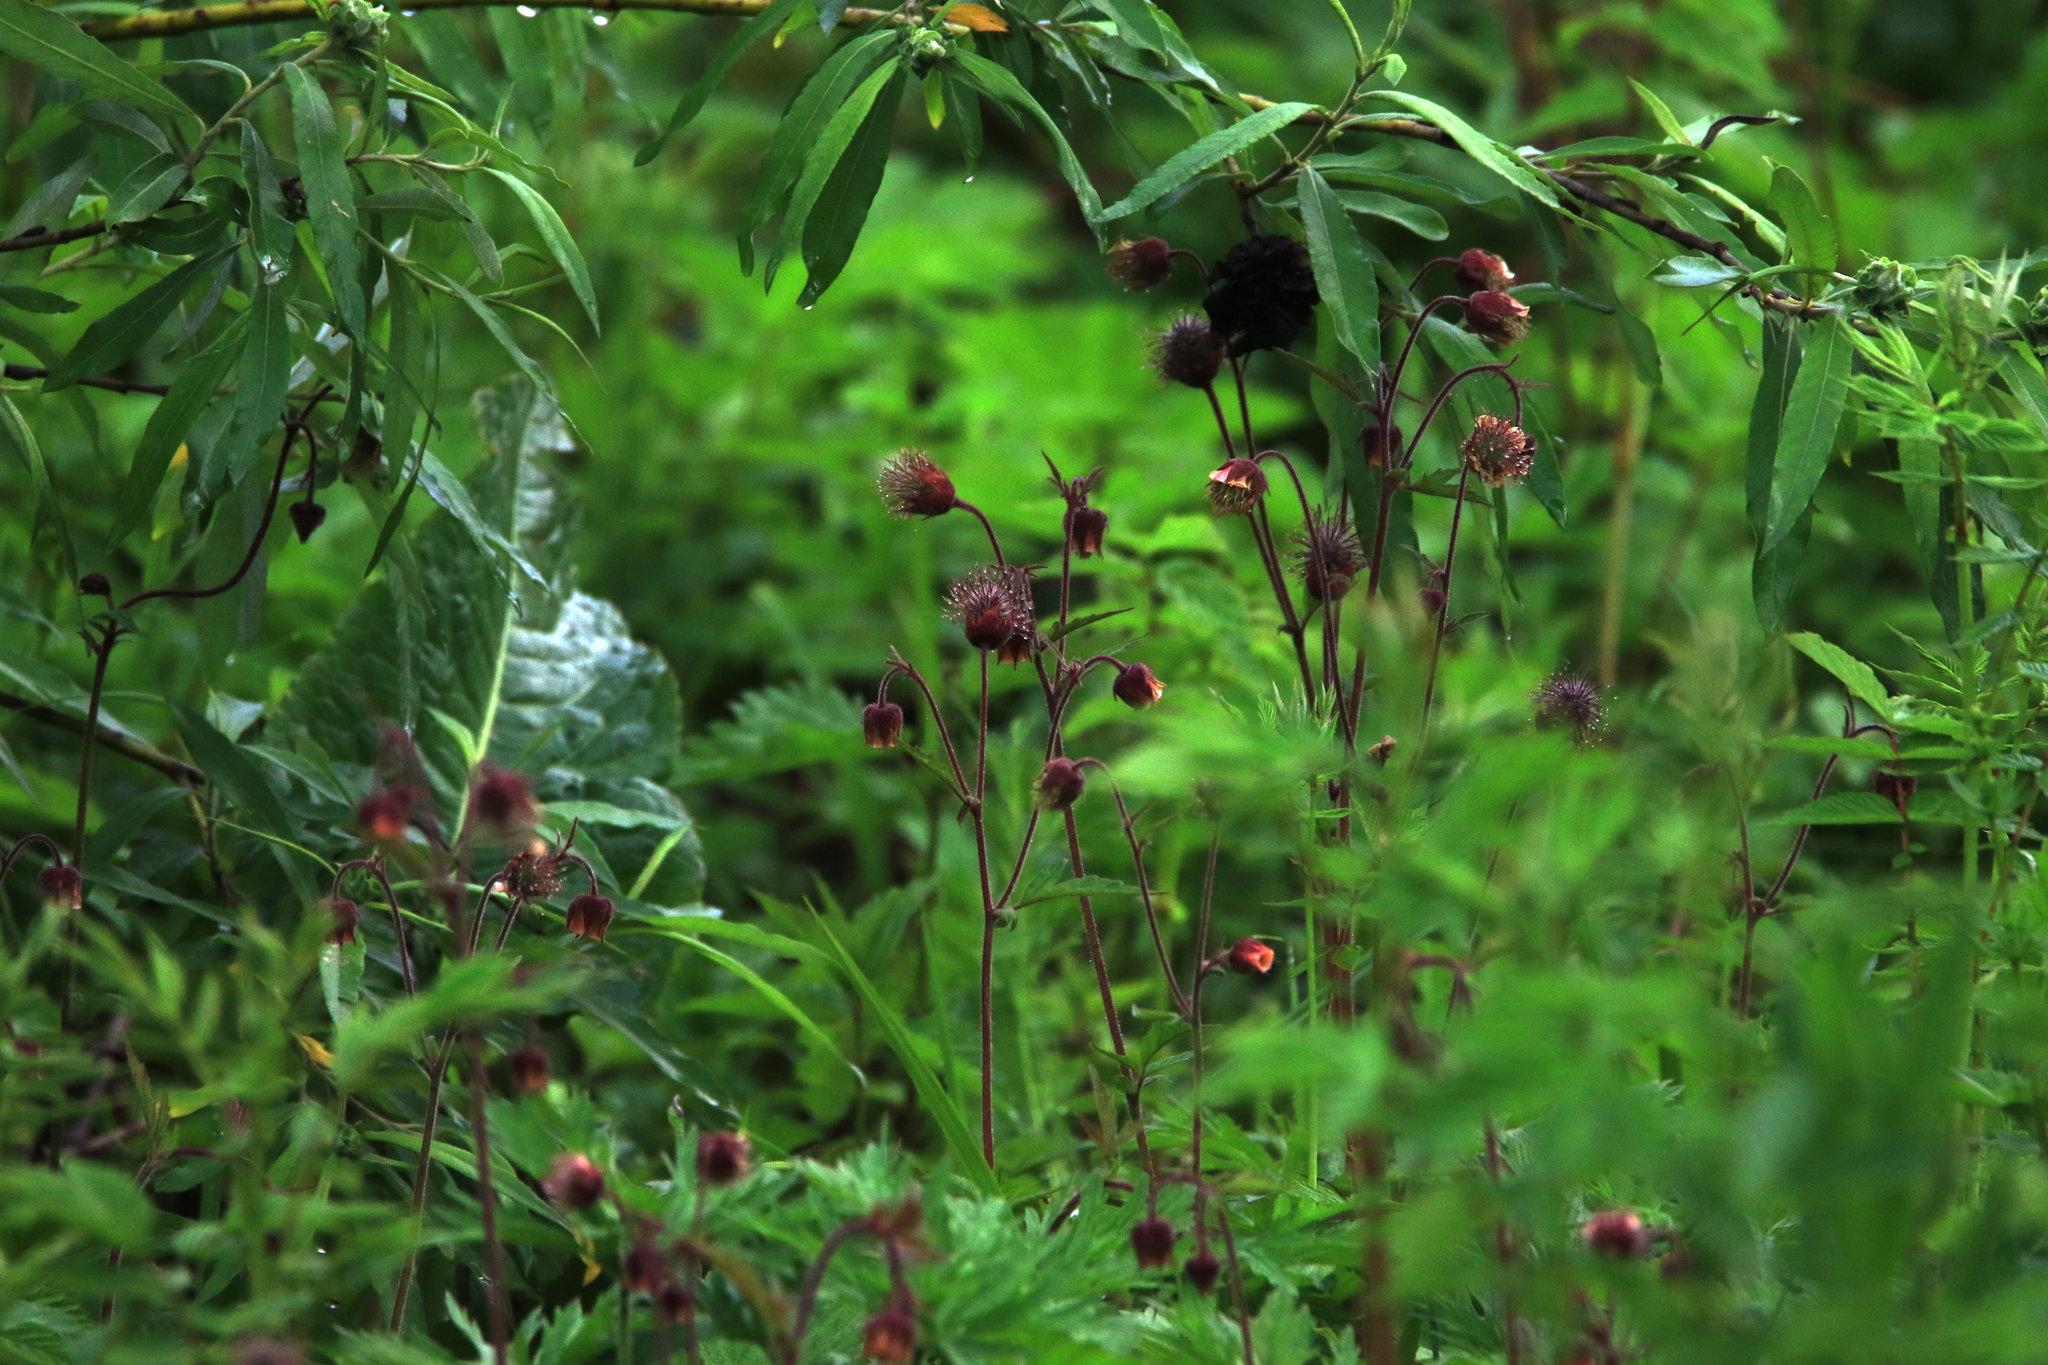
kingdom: Plantae
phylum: Tracheophyta
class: Magnoliopsida
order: Rosales
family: Rosaceae
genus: Geum
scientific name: Geum rivale
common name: Water avens
